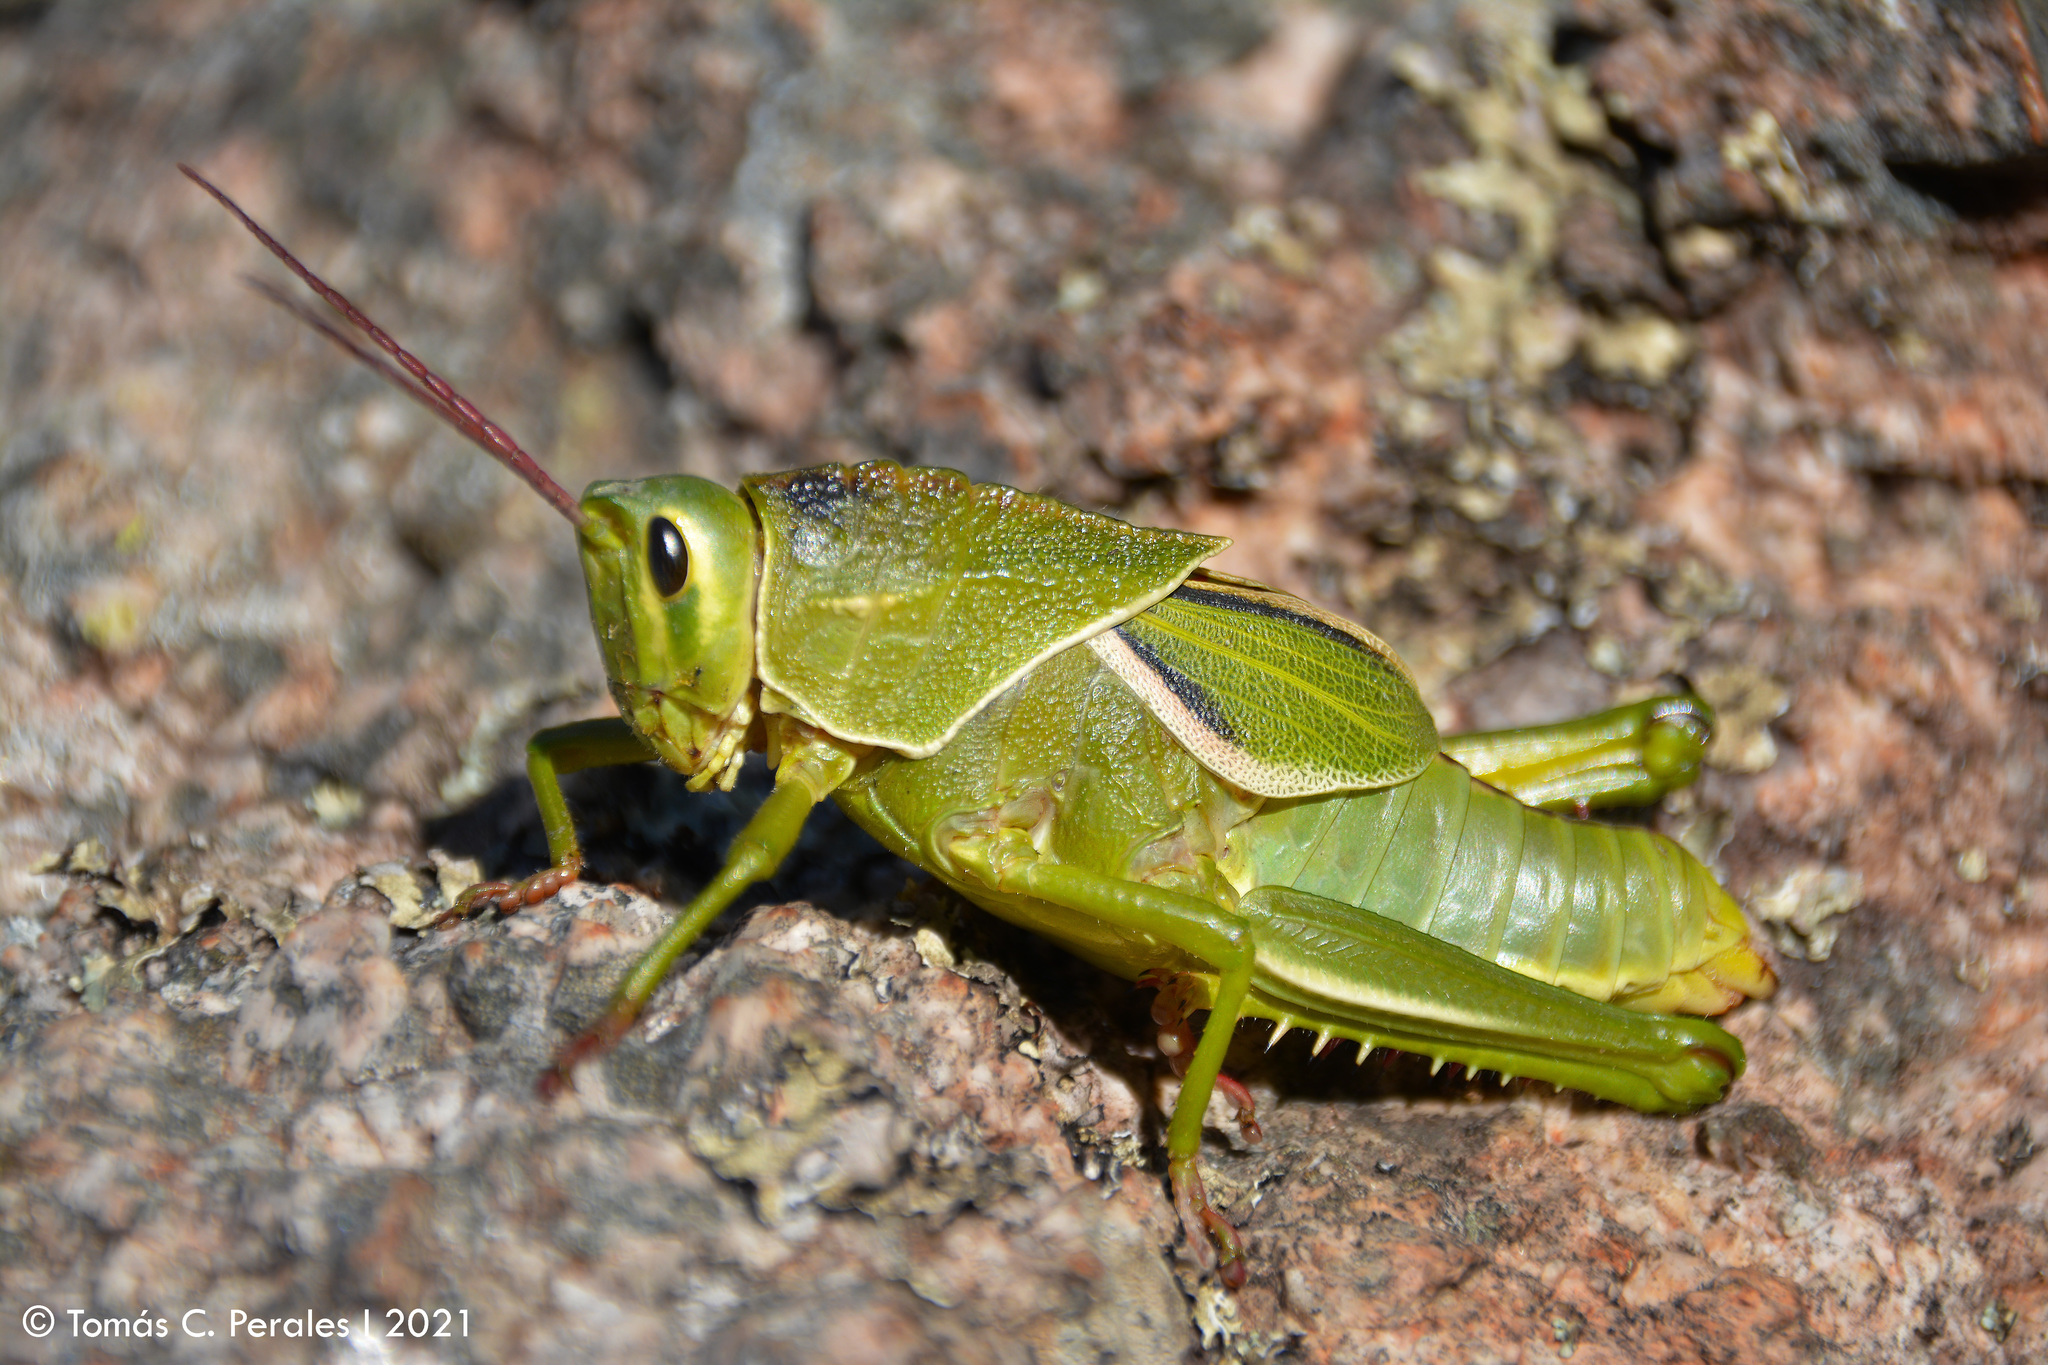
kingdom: Animalia
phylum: Arthropoda
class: Insecta
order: Orthoptera
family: Romaleidae
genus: Staleochlora
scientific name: Staleochlora viridicata
